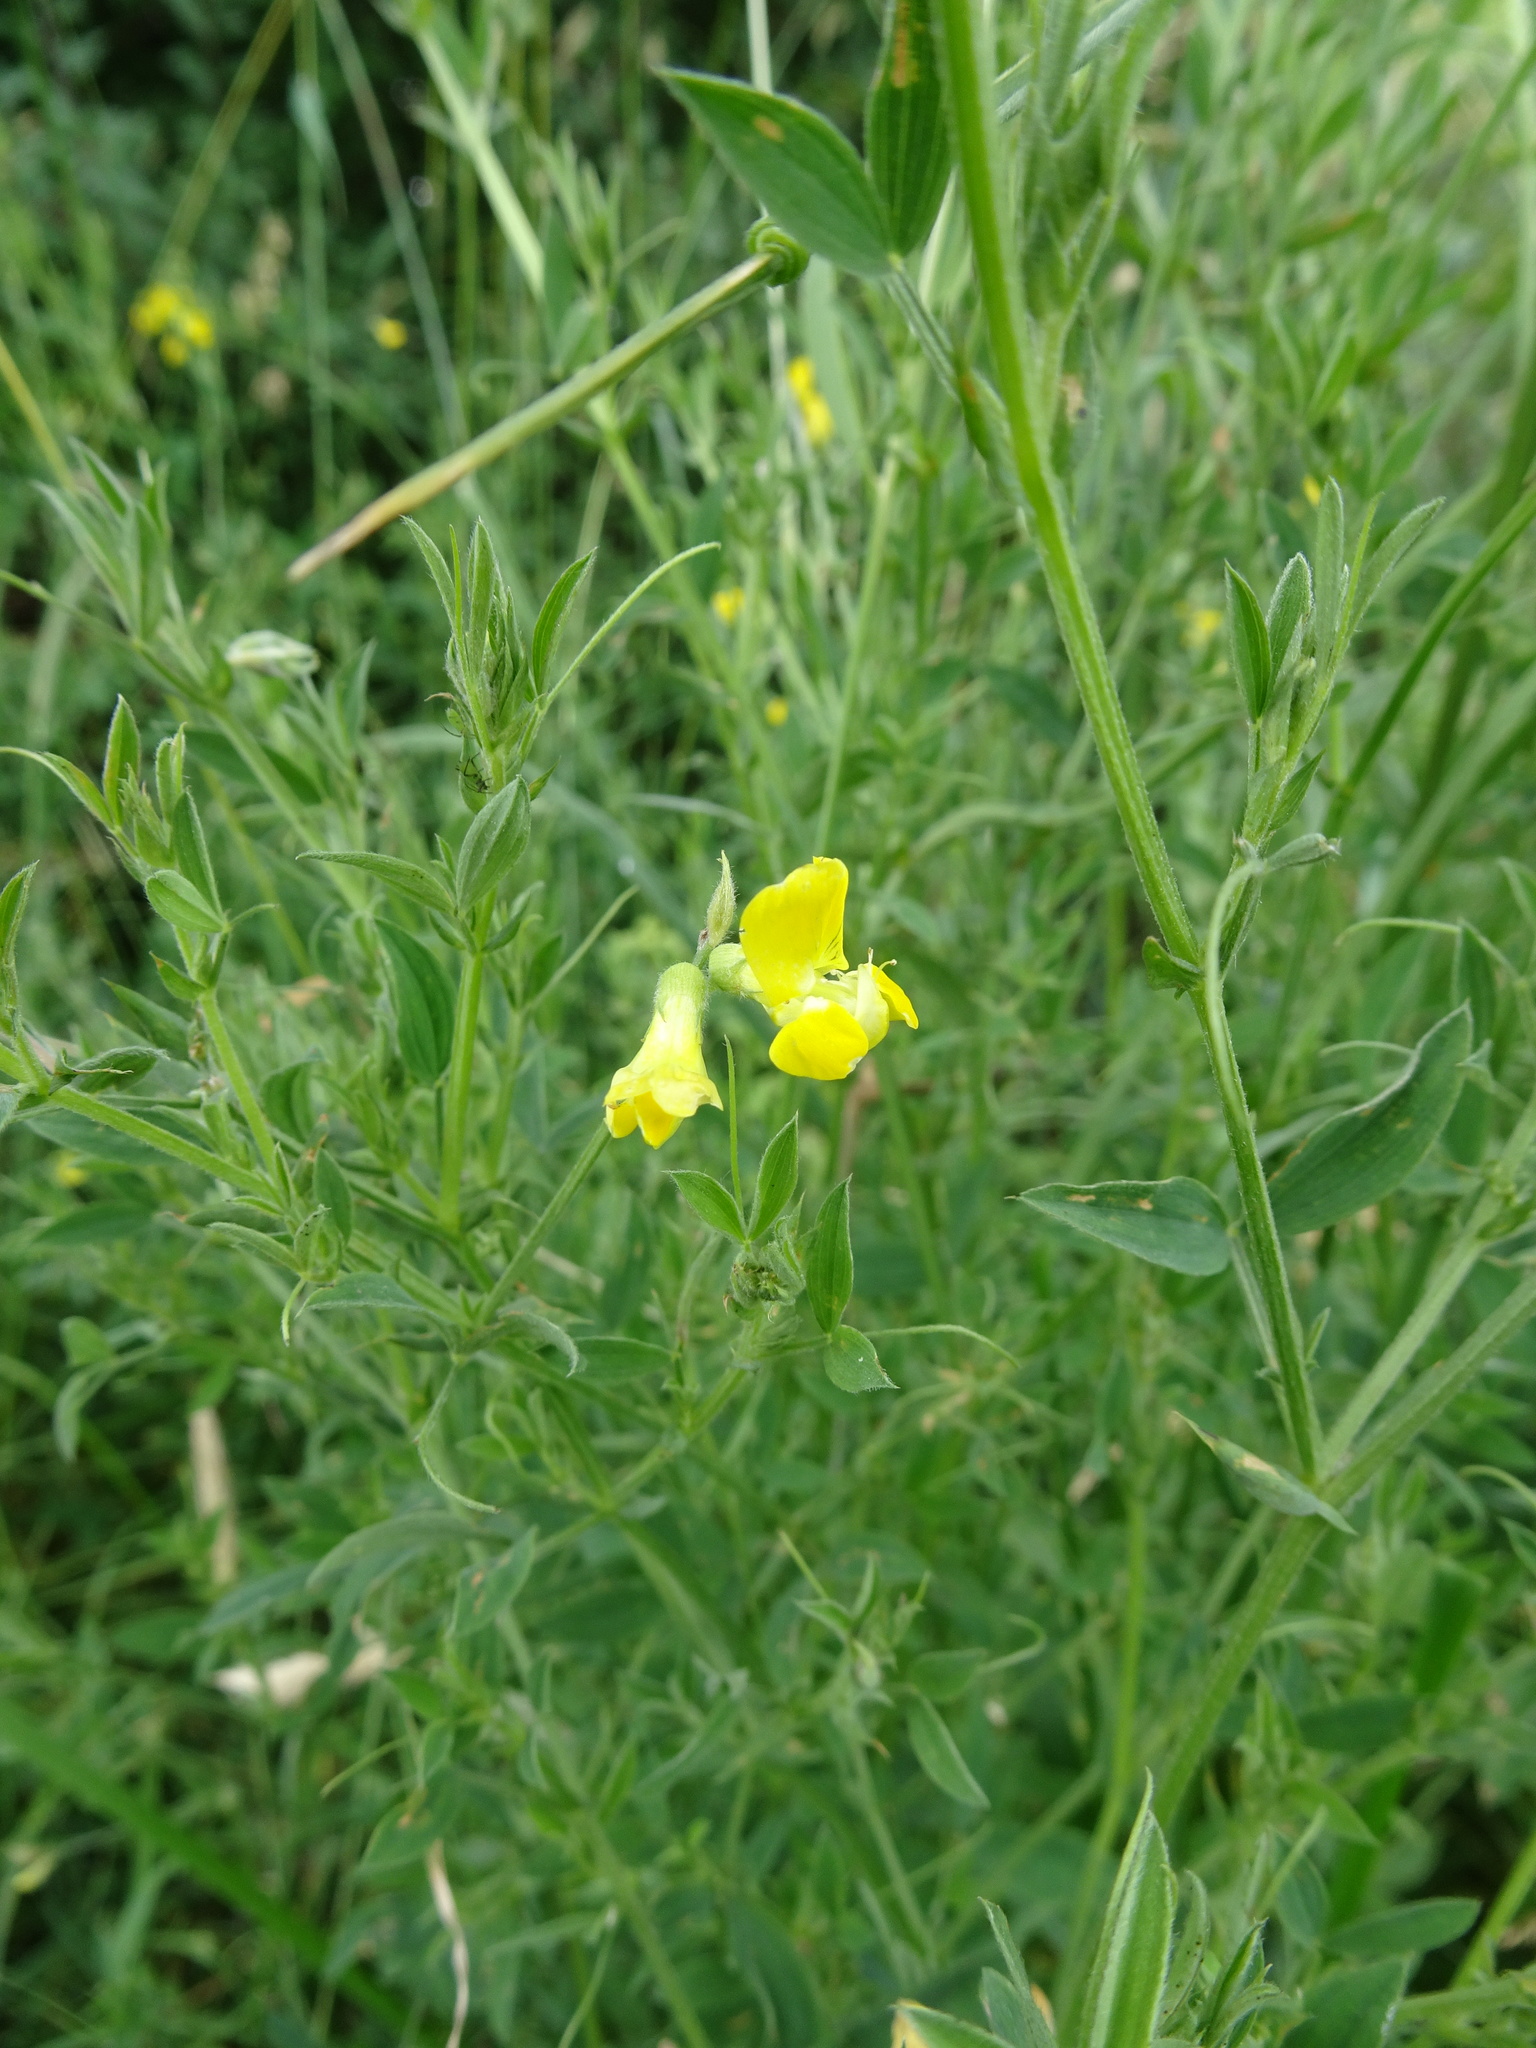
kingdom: Plantae
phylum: Tracheophyta
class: Magnoliopsida
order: Fabales
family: Fabaceae
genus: Lathyrus
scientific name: Lathyrus pratensis
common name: Meadow vetchling
